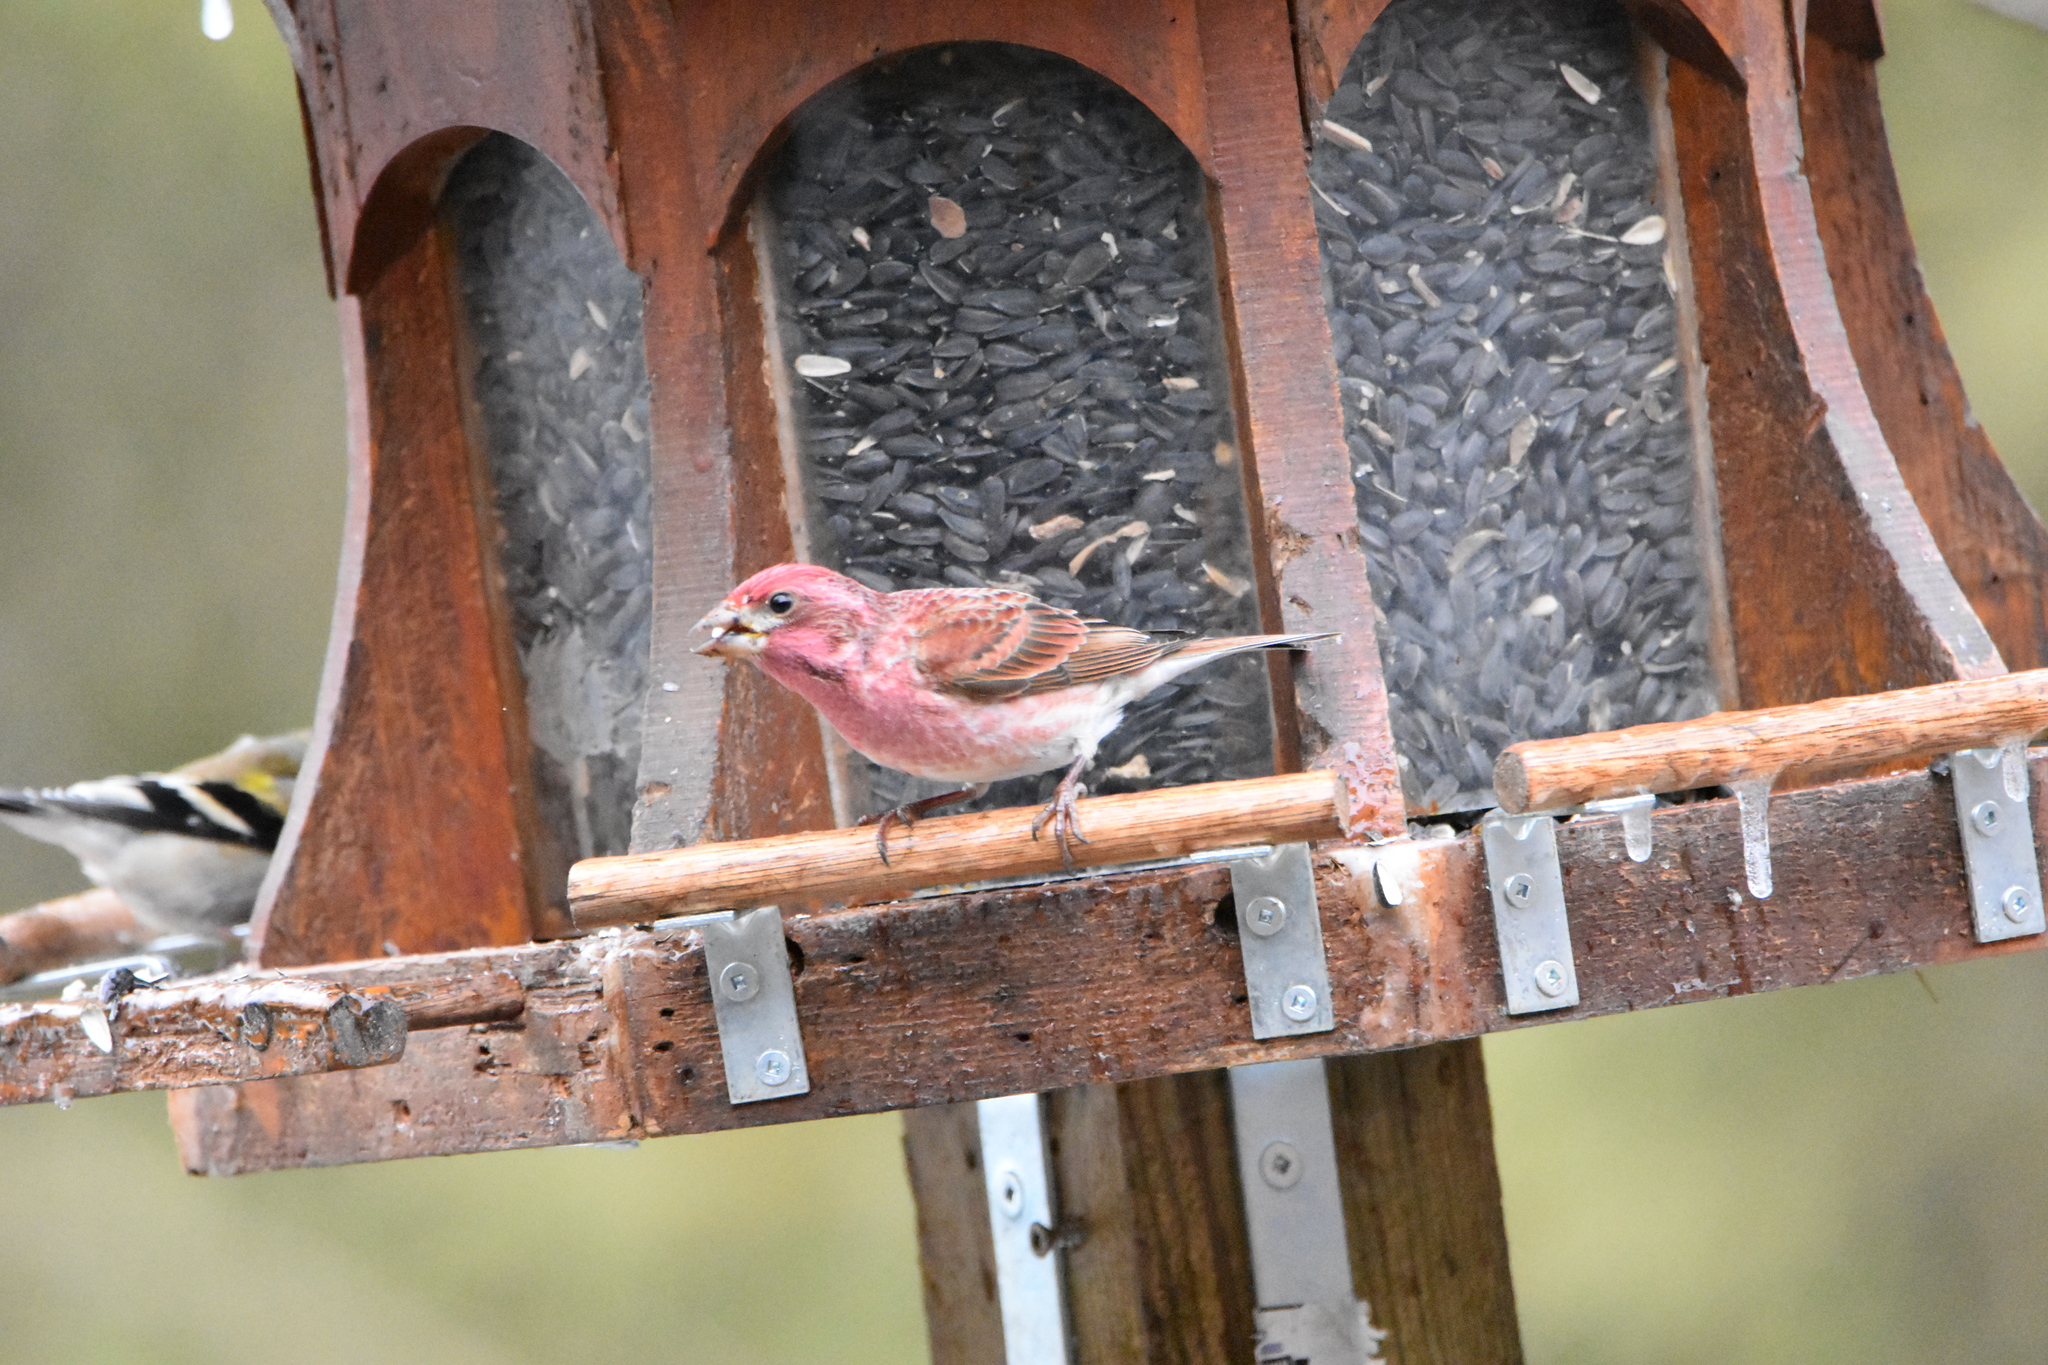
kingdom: Animalia
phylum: Chordata
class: Aves
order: Passeriformes
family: Fringillidae
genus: Haemorhous
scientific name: Haemorhous purpureus
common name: Purple finch
